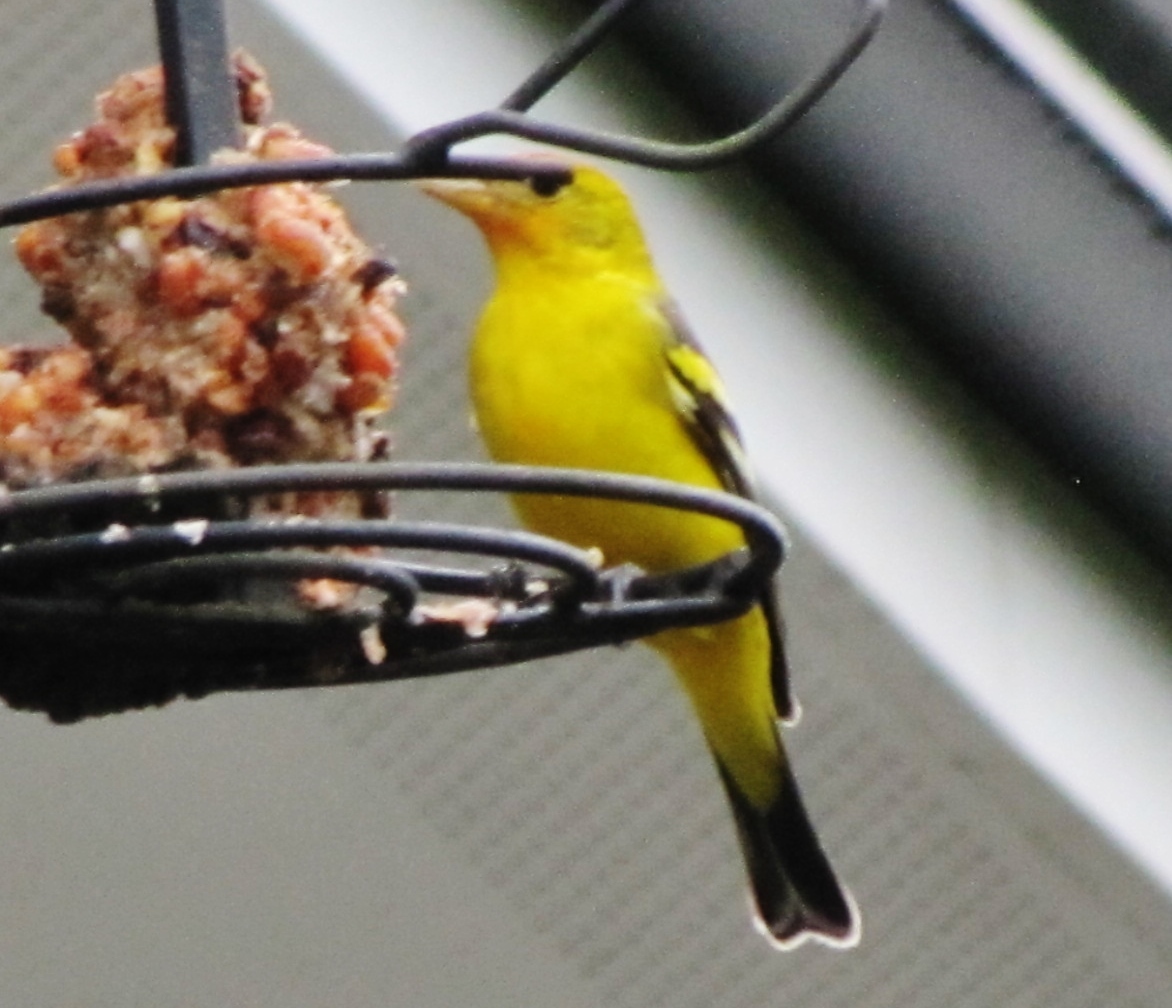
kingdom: Animalia
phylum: Chordata
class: Aves
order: Passeriformes
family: Cardinalidae
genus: Piranga
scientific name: Piranga ludoviciana
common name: Western tanager
